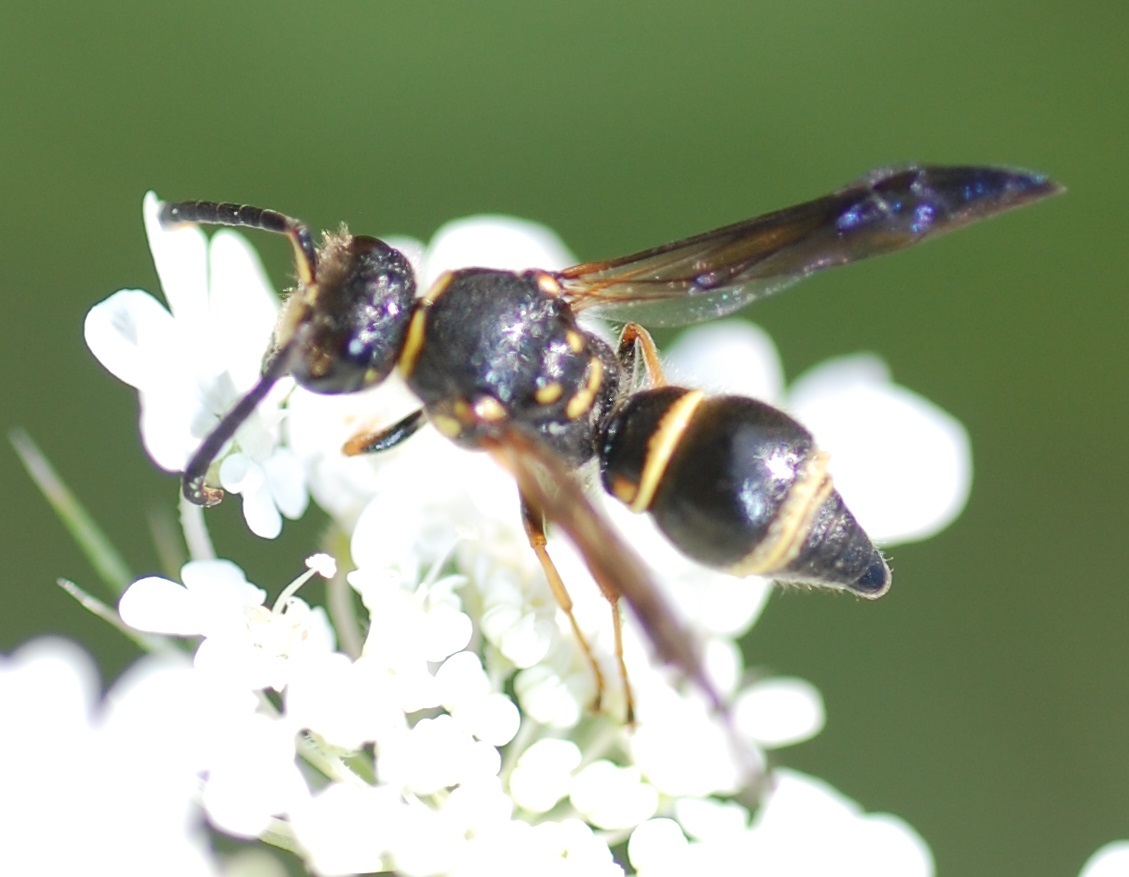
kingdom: Animalia
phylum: Arthropoda
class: Insecta
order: Hymenoptera
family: Vespidae
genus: Ancistrocerus
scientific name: Ancistrocerus campestris
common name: Smiling mason wasp
